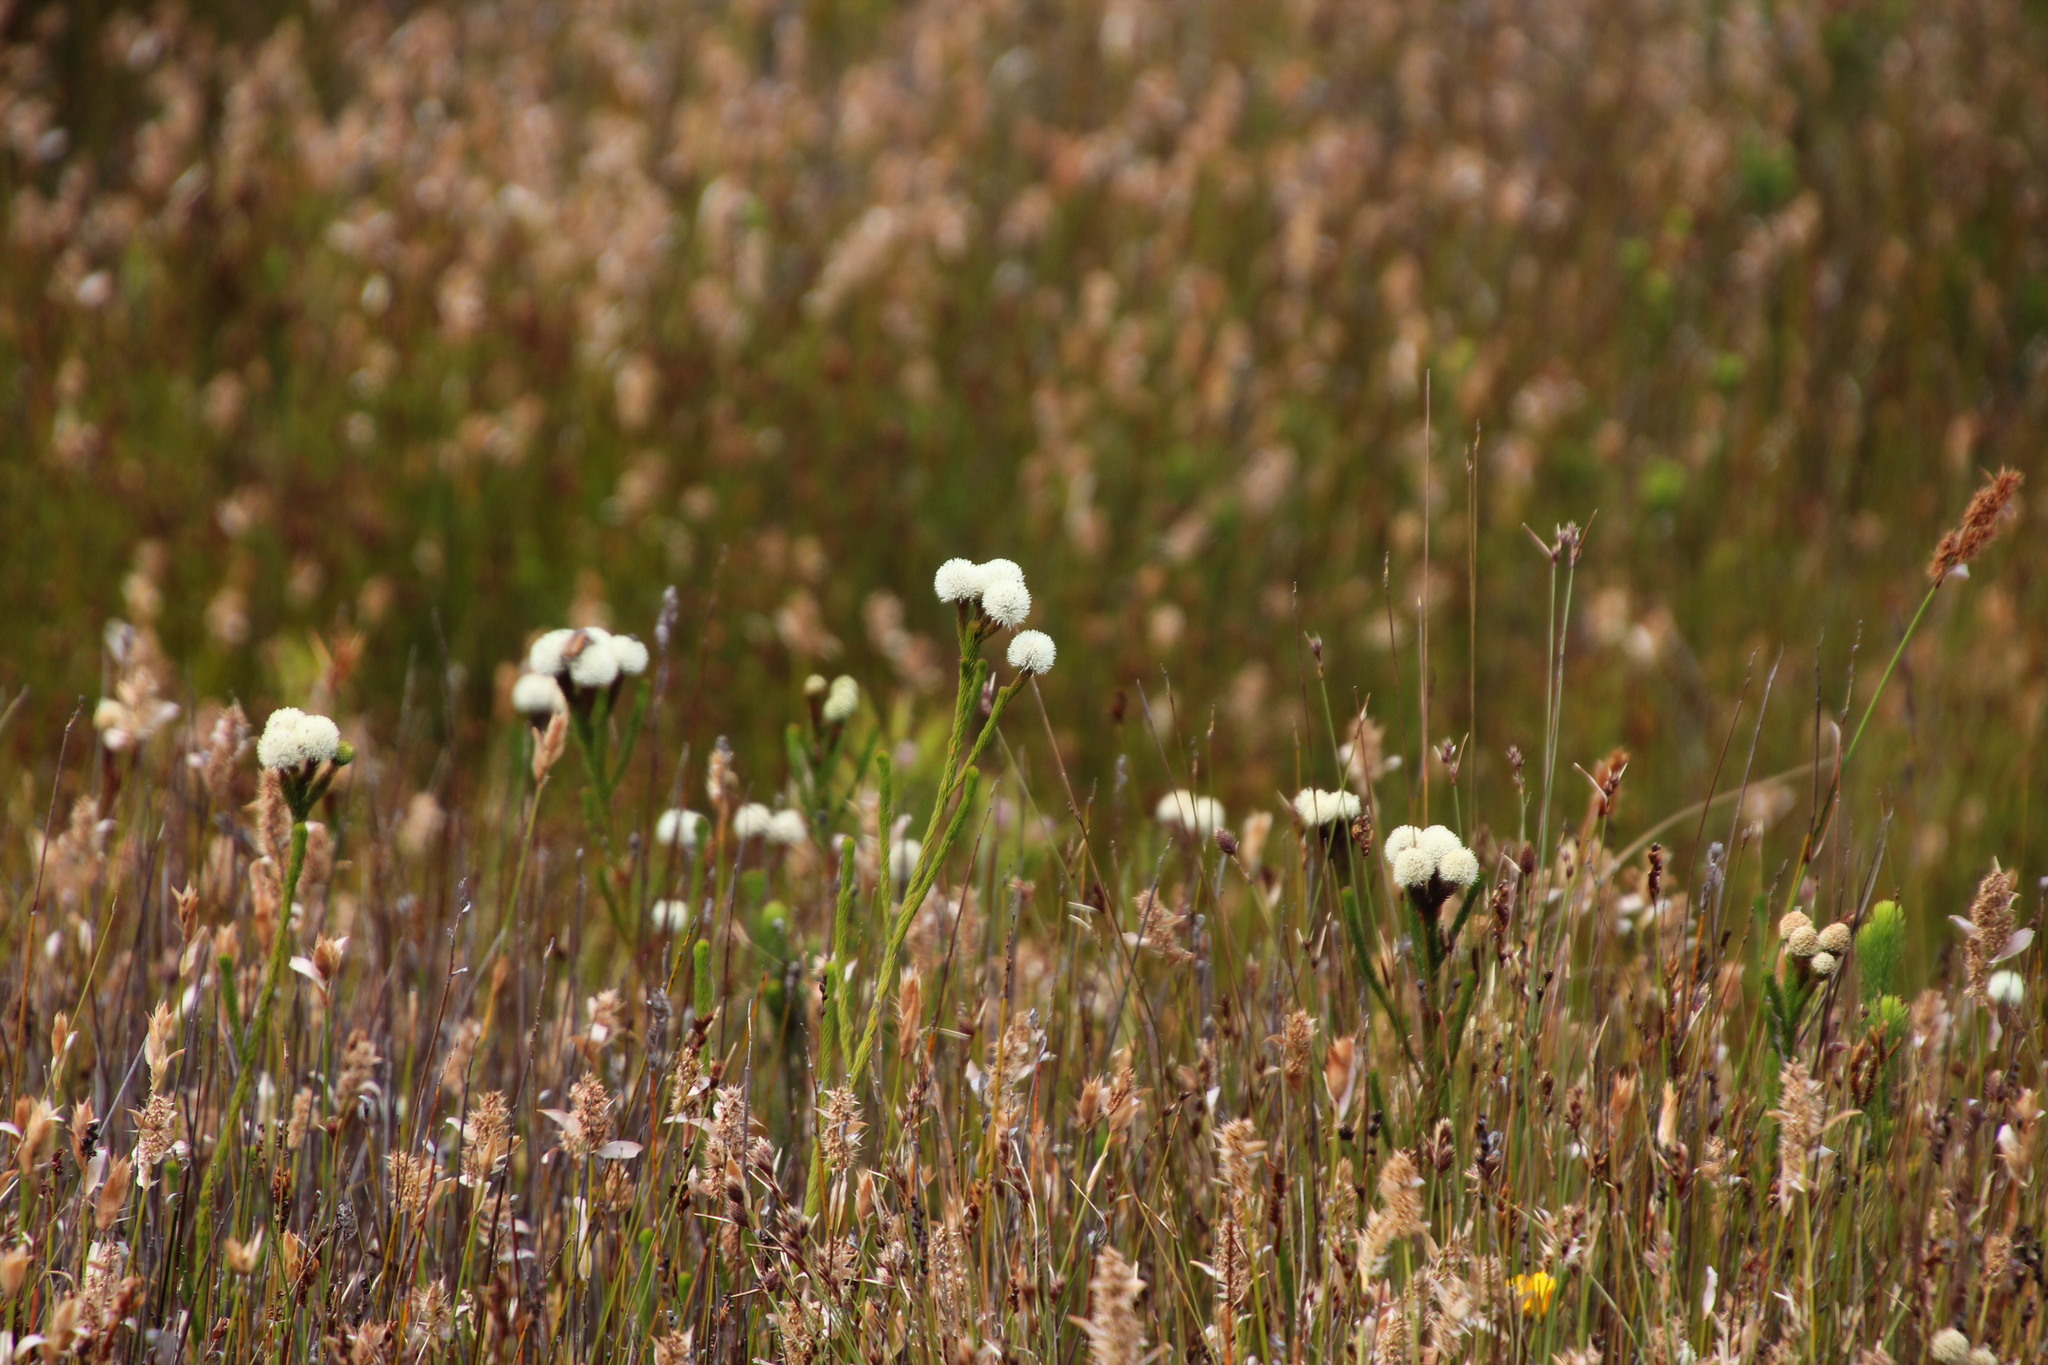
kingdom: Plantae
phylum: Tracheophyta
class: Magnoliopsida
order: Bruniales
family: Bruniaceae
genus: Berzelia
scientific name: Berzelia ecklonii
